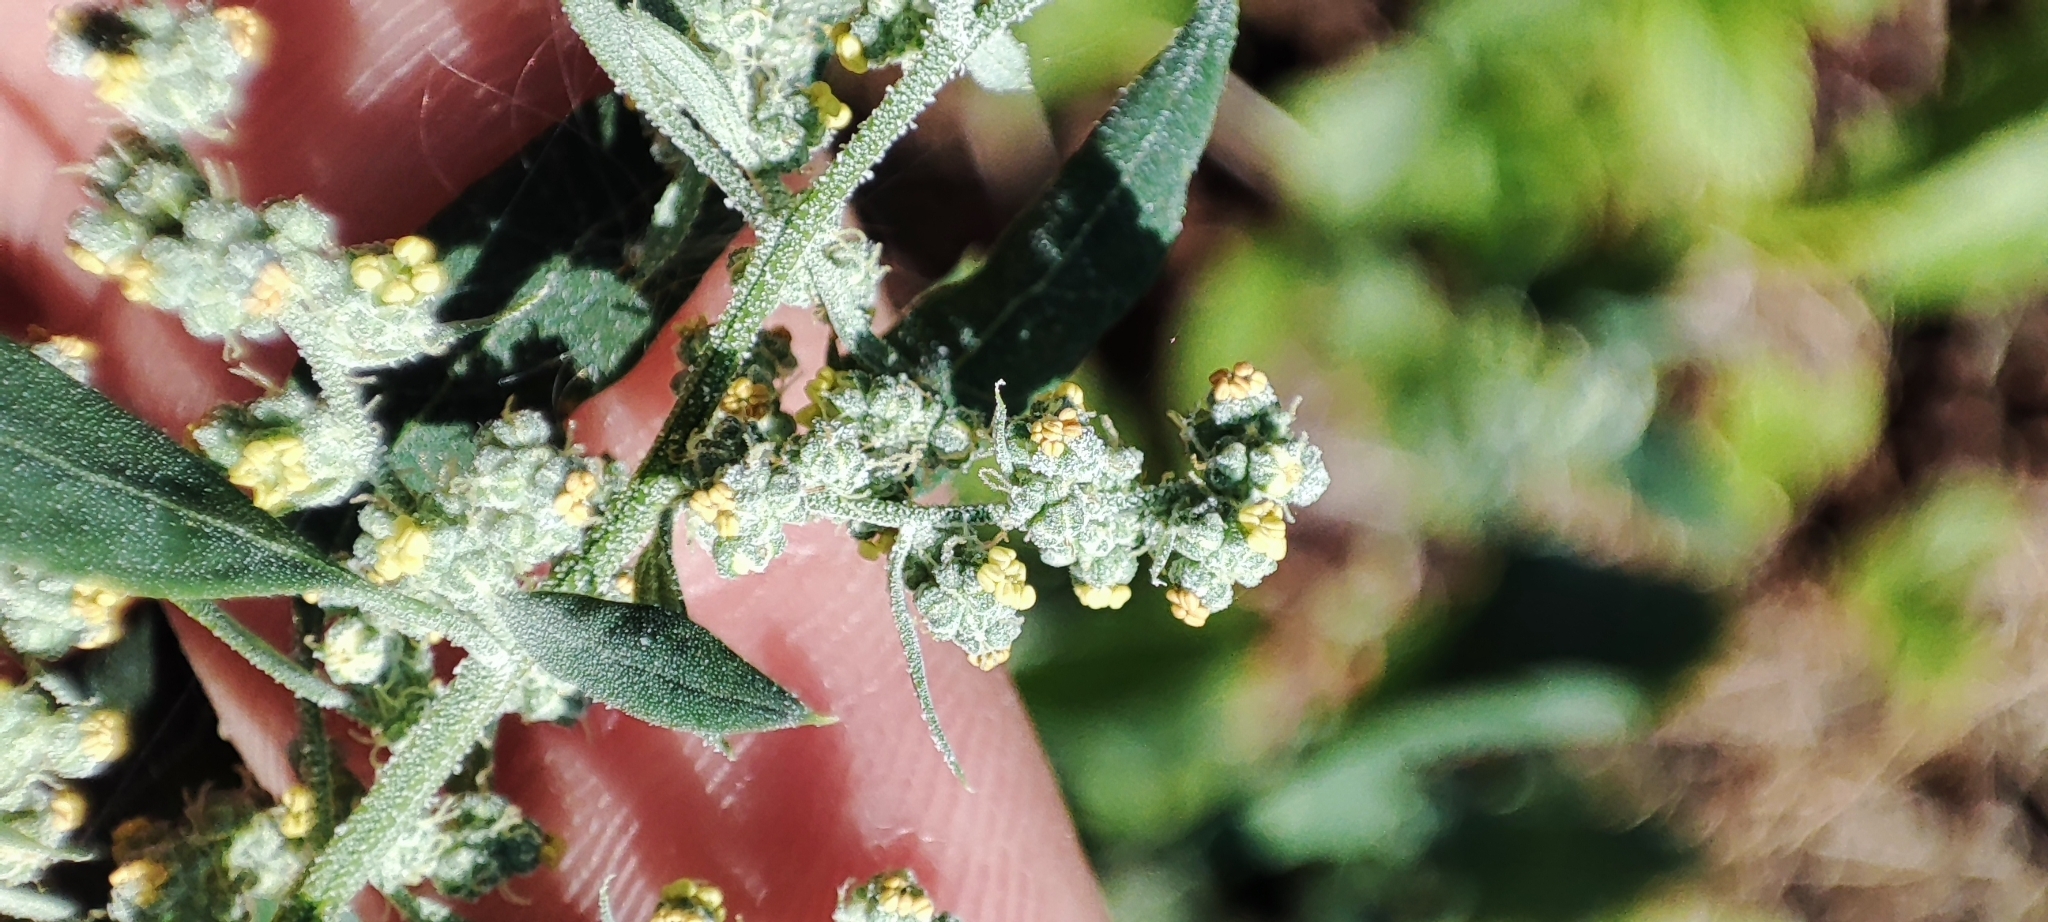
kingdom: Plantae
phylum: Tracheophyta
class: Magnoliopsida
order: Caryophyllales
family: Amaranthaceae
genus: Chenopodium
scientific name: Chenopodium album
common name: Fat-hen
